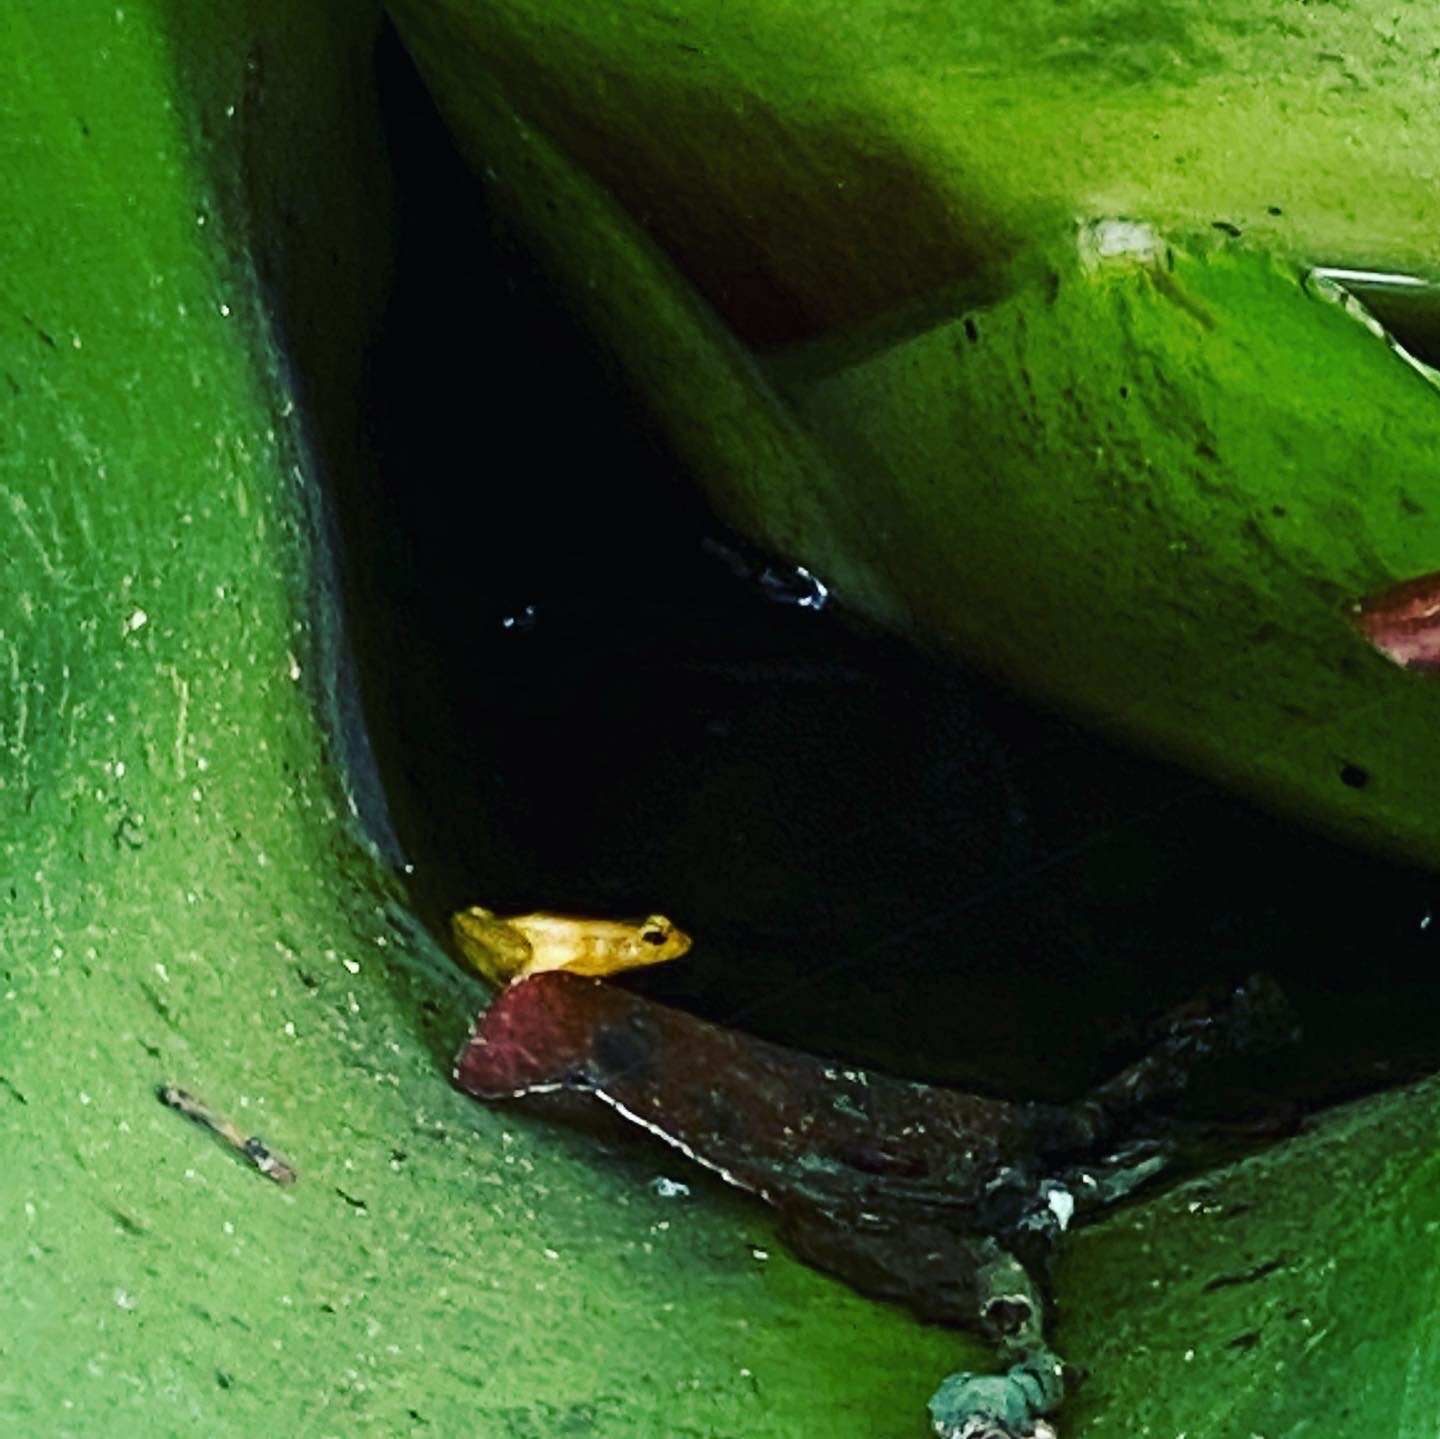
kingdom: Animalia
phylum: Chordata
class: Amphibia
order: Anura
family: Aromobatidae
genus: Anomaloglossus
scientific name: Anomaloglossus beebei
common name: Beebe's rocket frog
